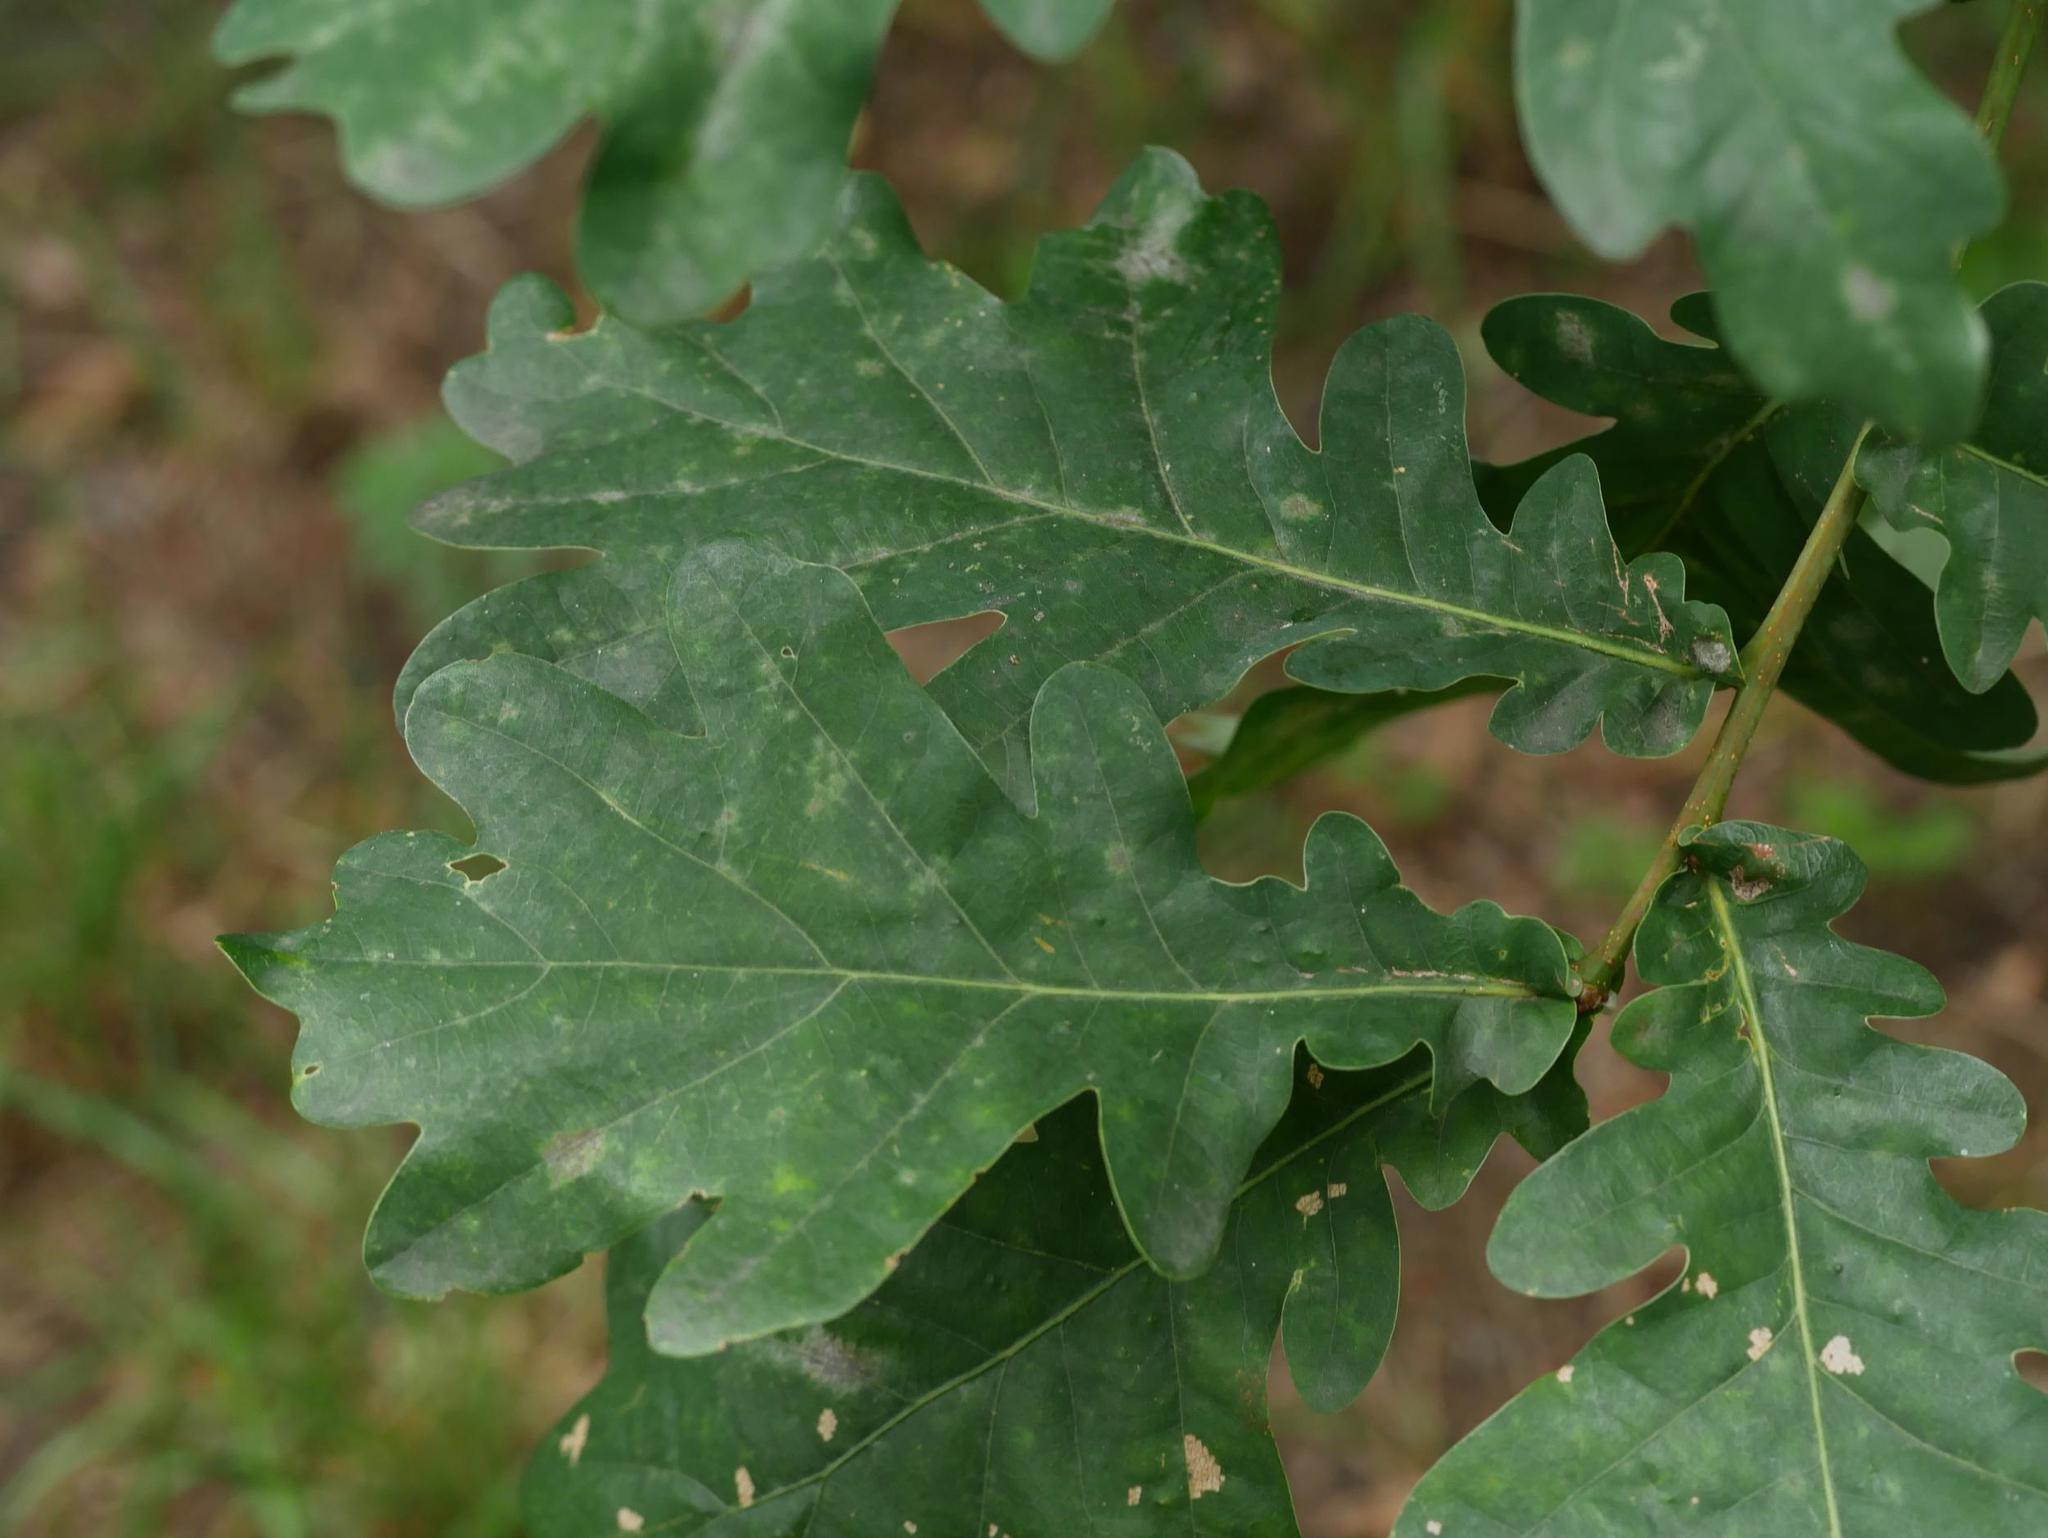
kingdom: Plantae
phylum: Tracheophyta
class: Magnoliopsida
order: Fagales
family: Fagaceae
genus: Quercus
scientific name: Quercus robur
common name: Pedunculate oak
